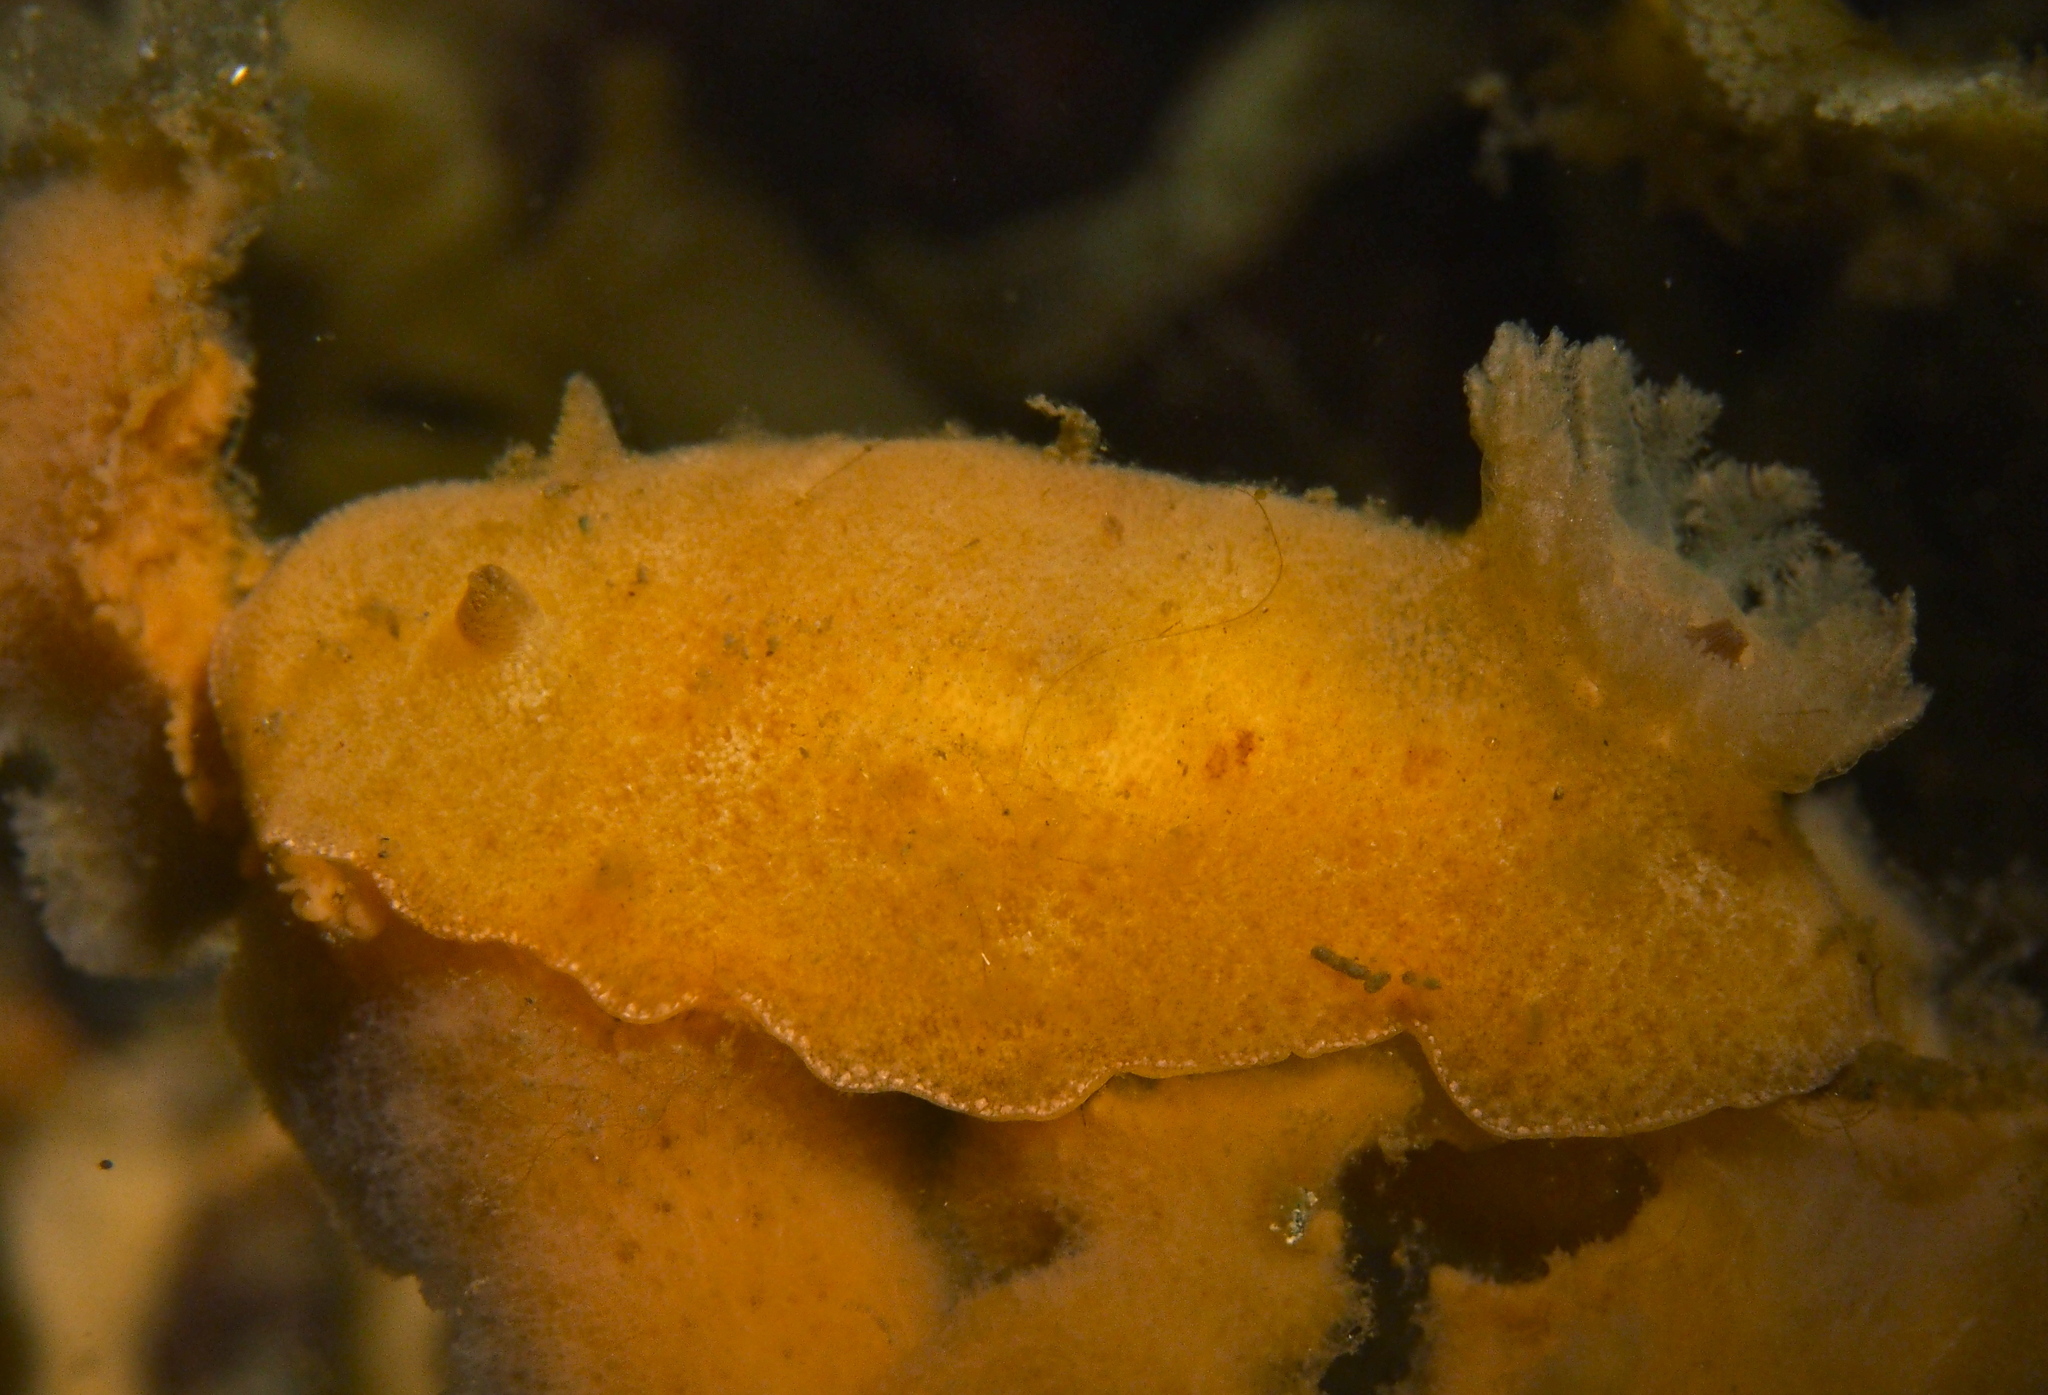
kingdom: Animalia
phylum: Mollusca
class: Gastropoda
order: Nudibranchia
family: Discodorididae
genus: Jorunna
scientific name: Jorunna tomentosa
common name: Grey sea slug
